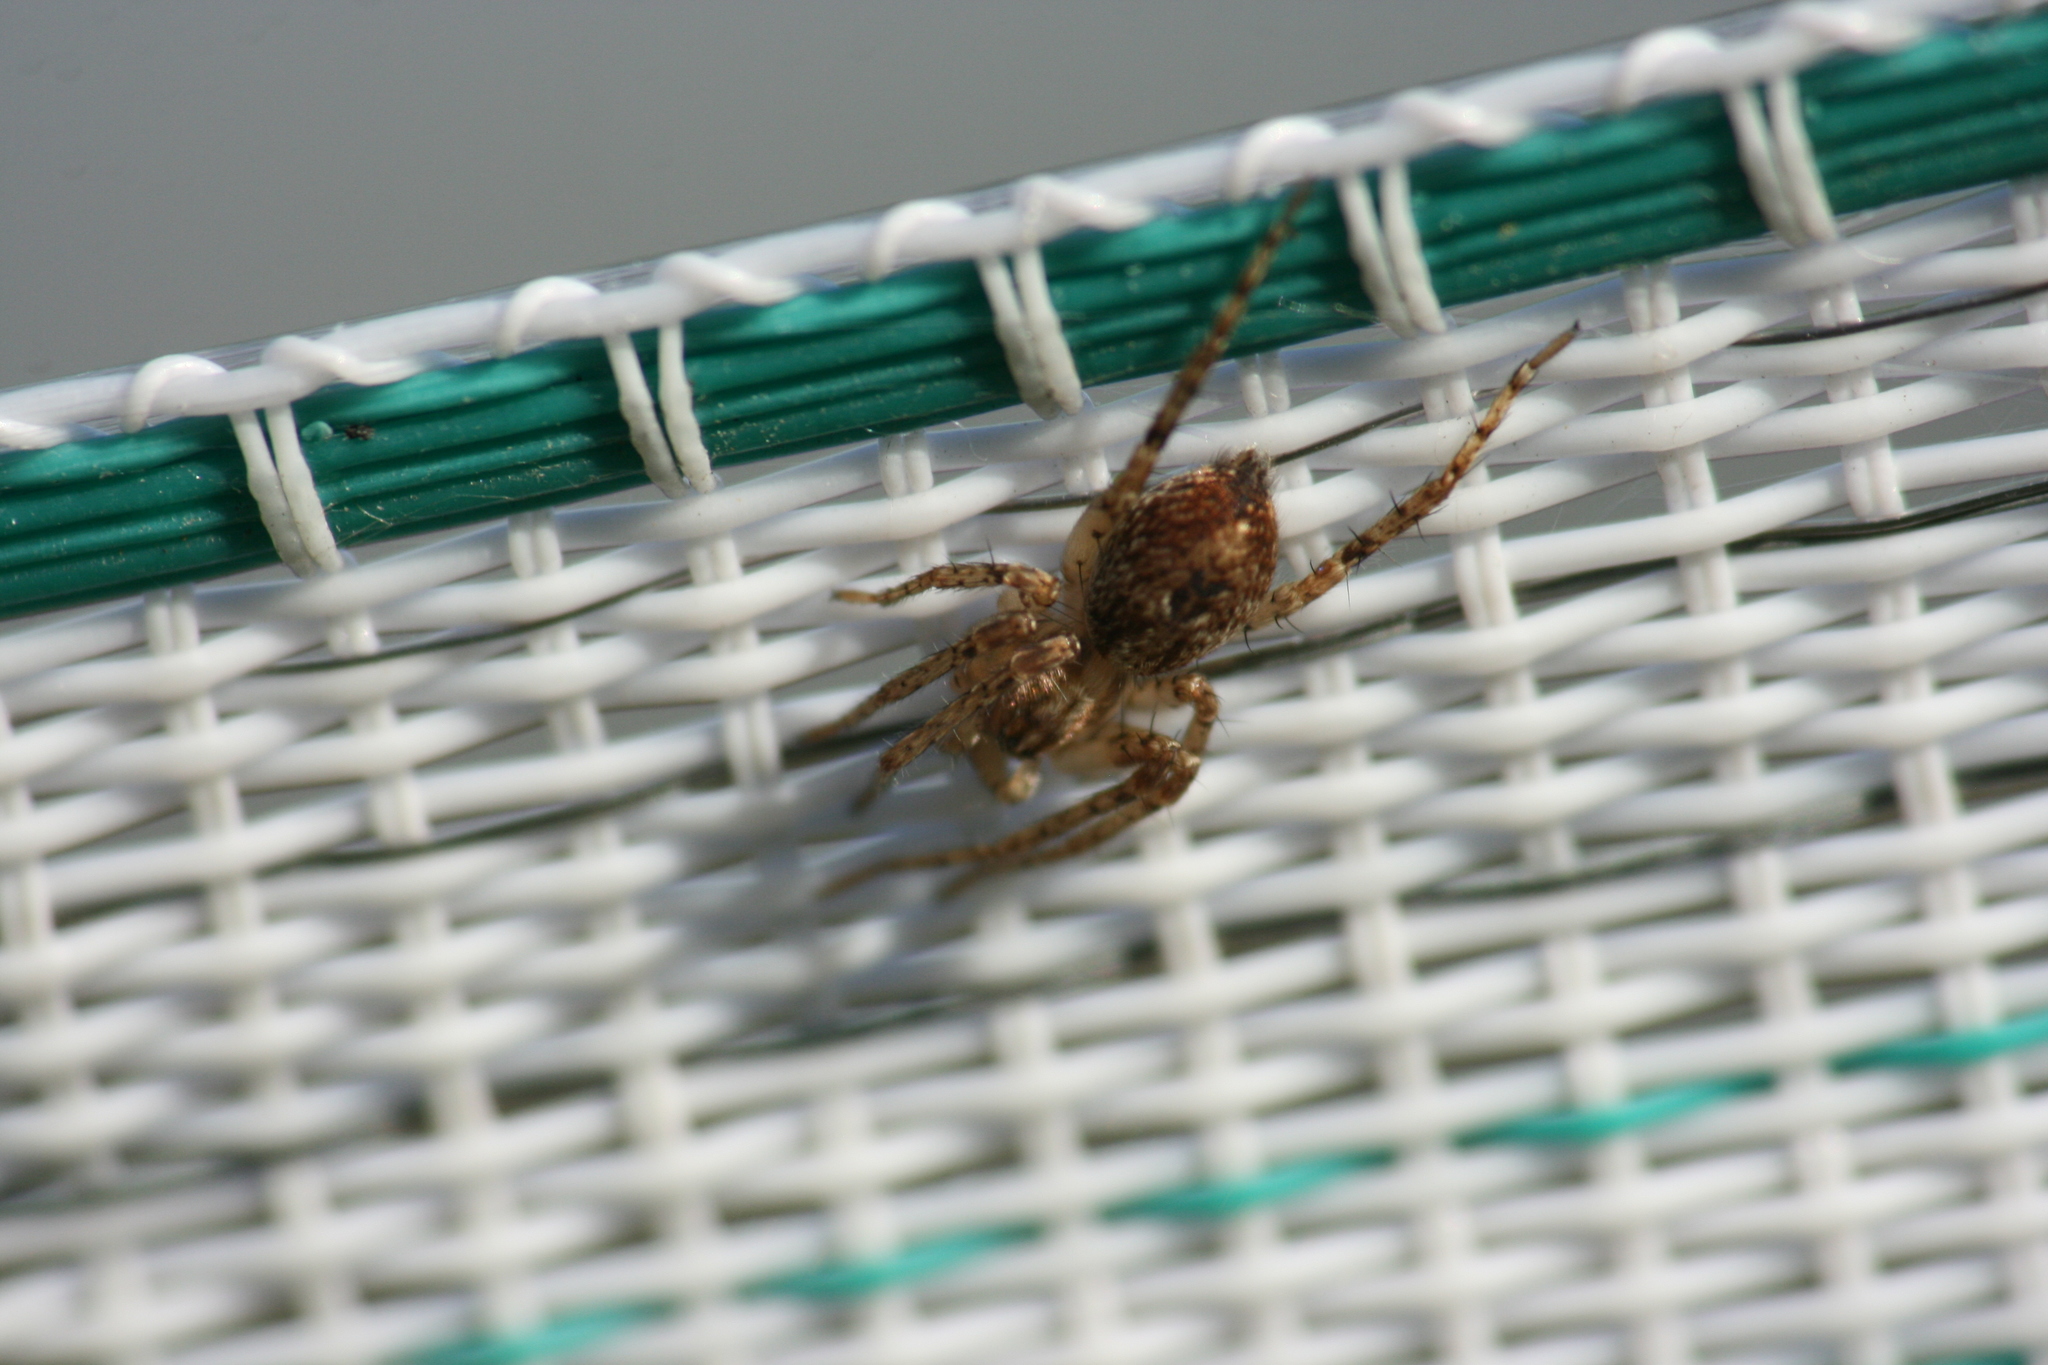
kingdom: Animalia
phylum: Arthropoda
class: Arachnida
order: Araneae
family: Anyphaenidae
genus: Anyphaena
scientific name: Anyphaena accentuata
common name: Buzzing spider
